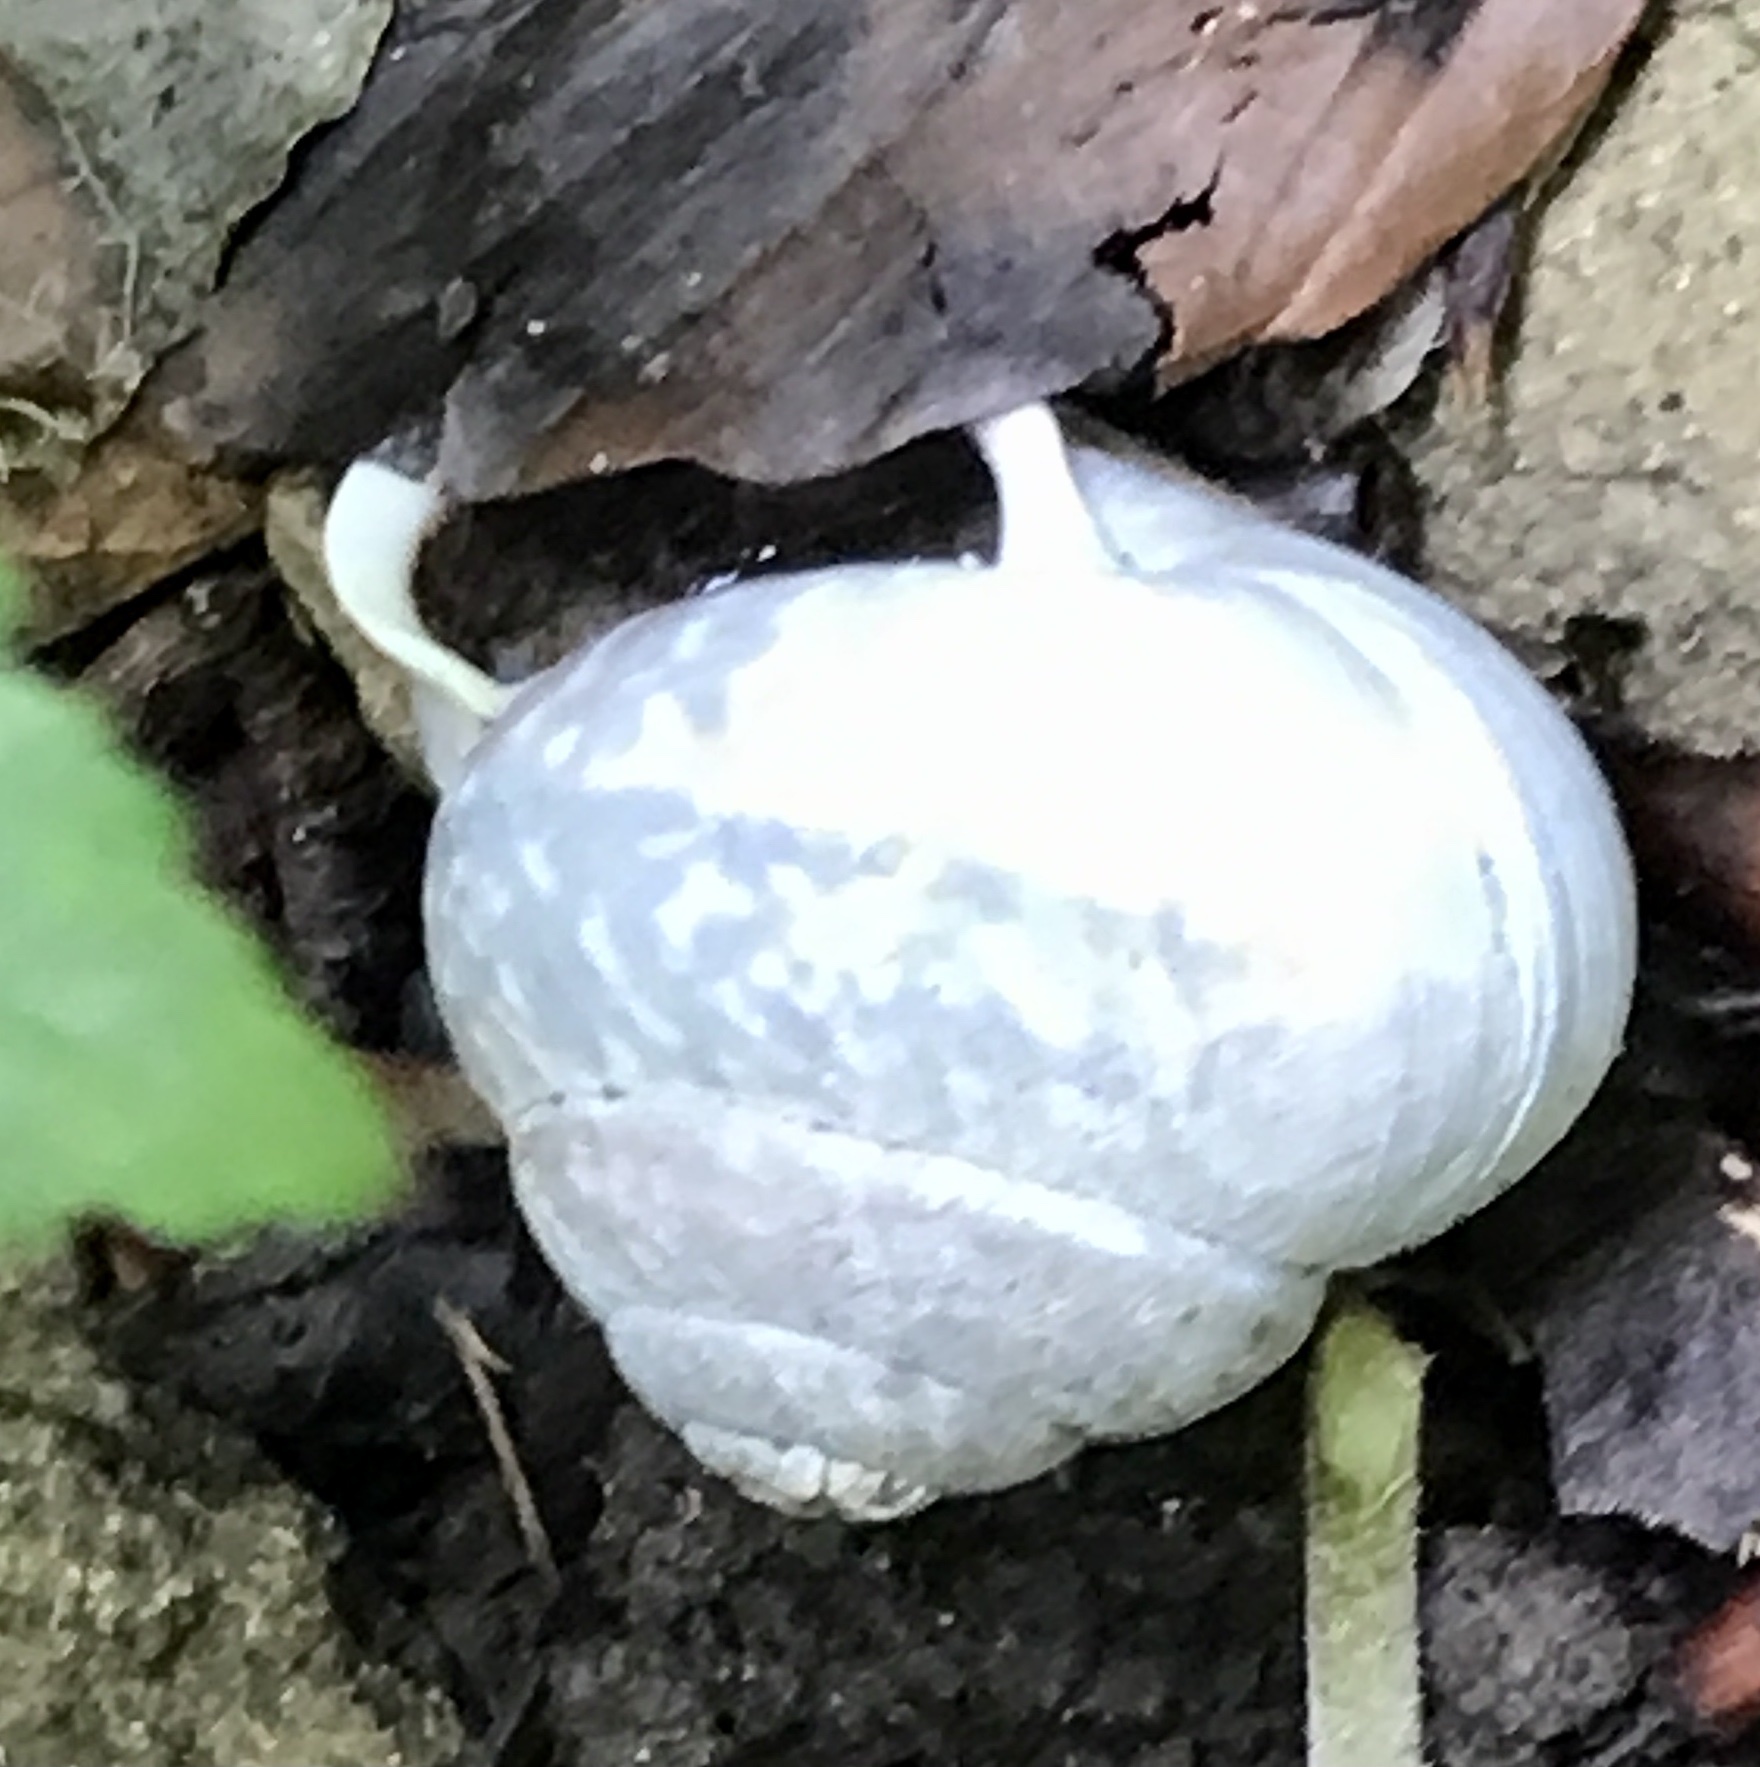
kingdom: Animalia
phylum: Mollusca
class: Gastropoda
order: Stylommatophora
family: Helicidae
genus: Arianta
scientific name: Arianta arbustorum
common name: Copse snail
